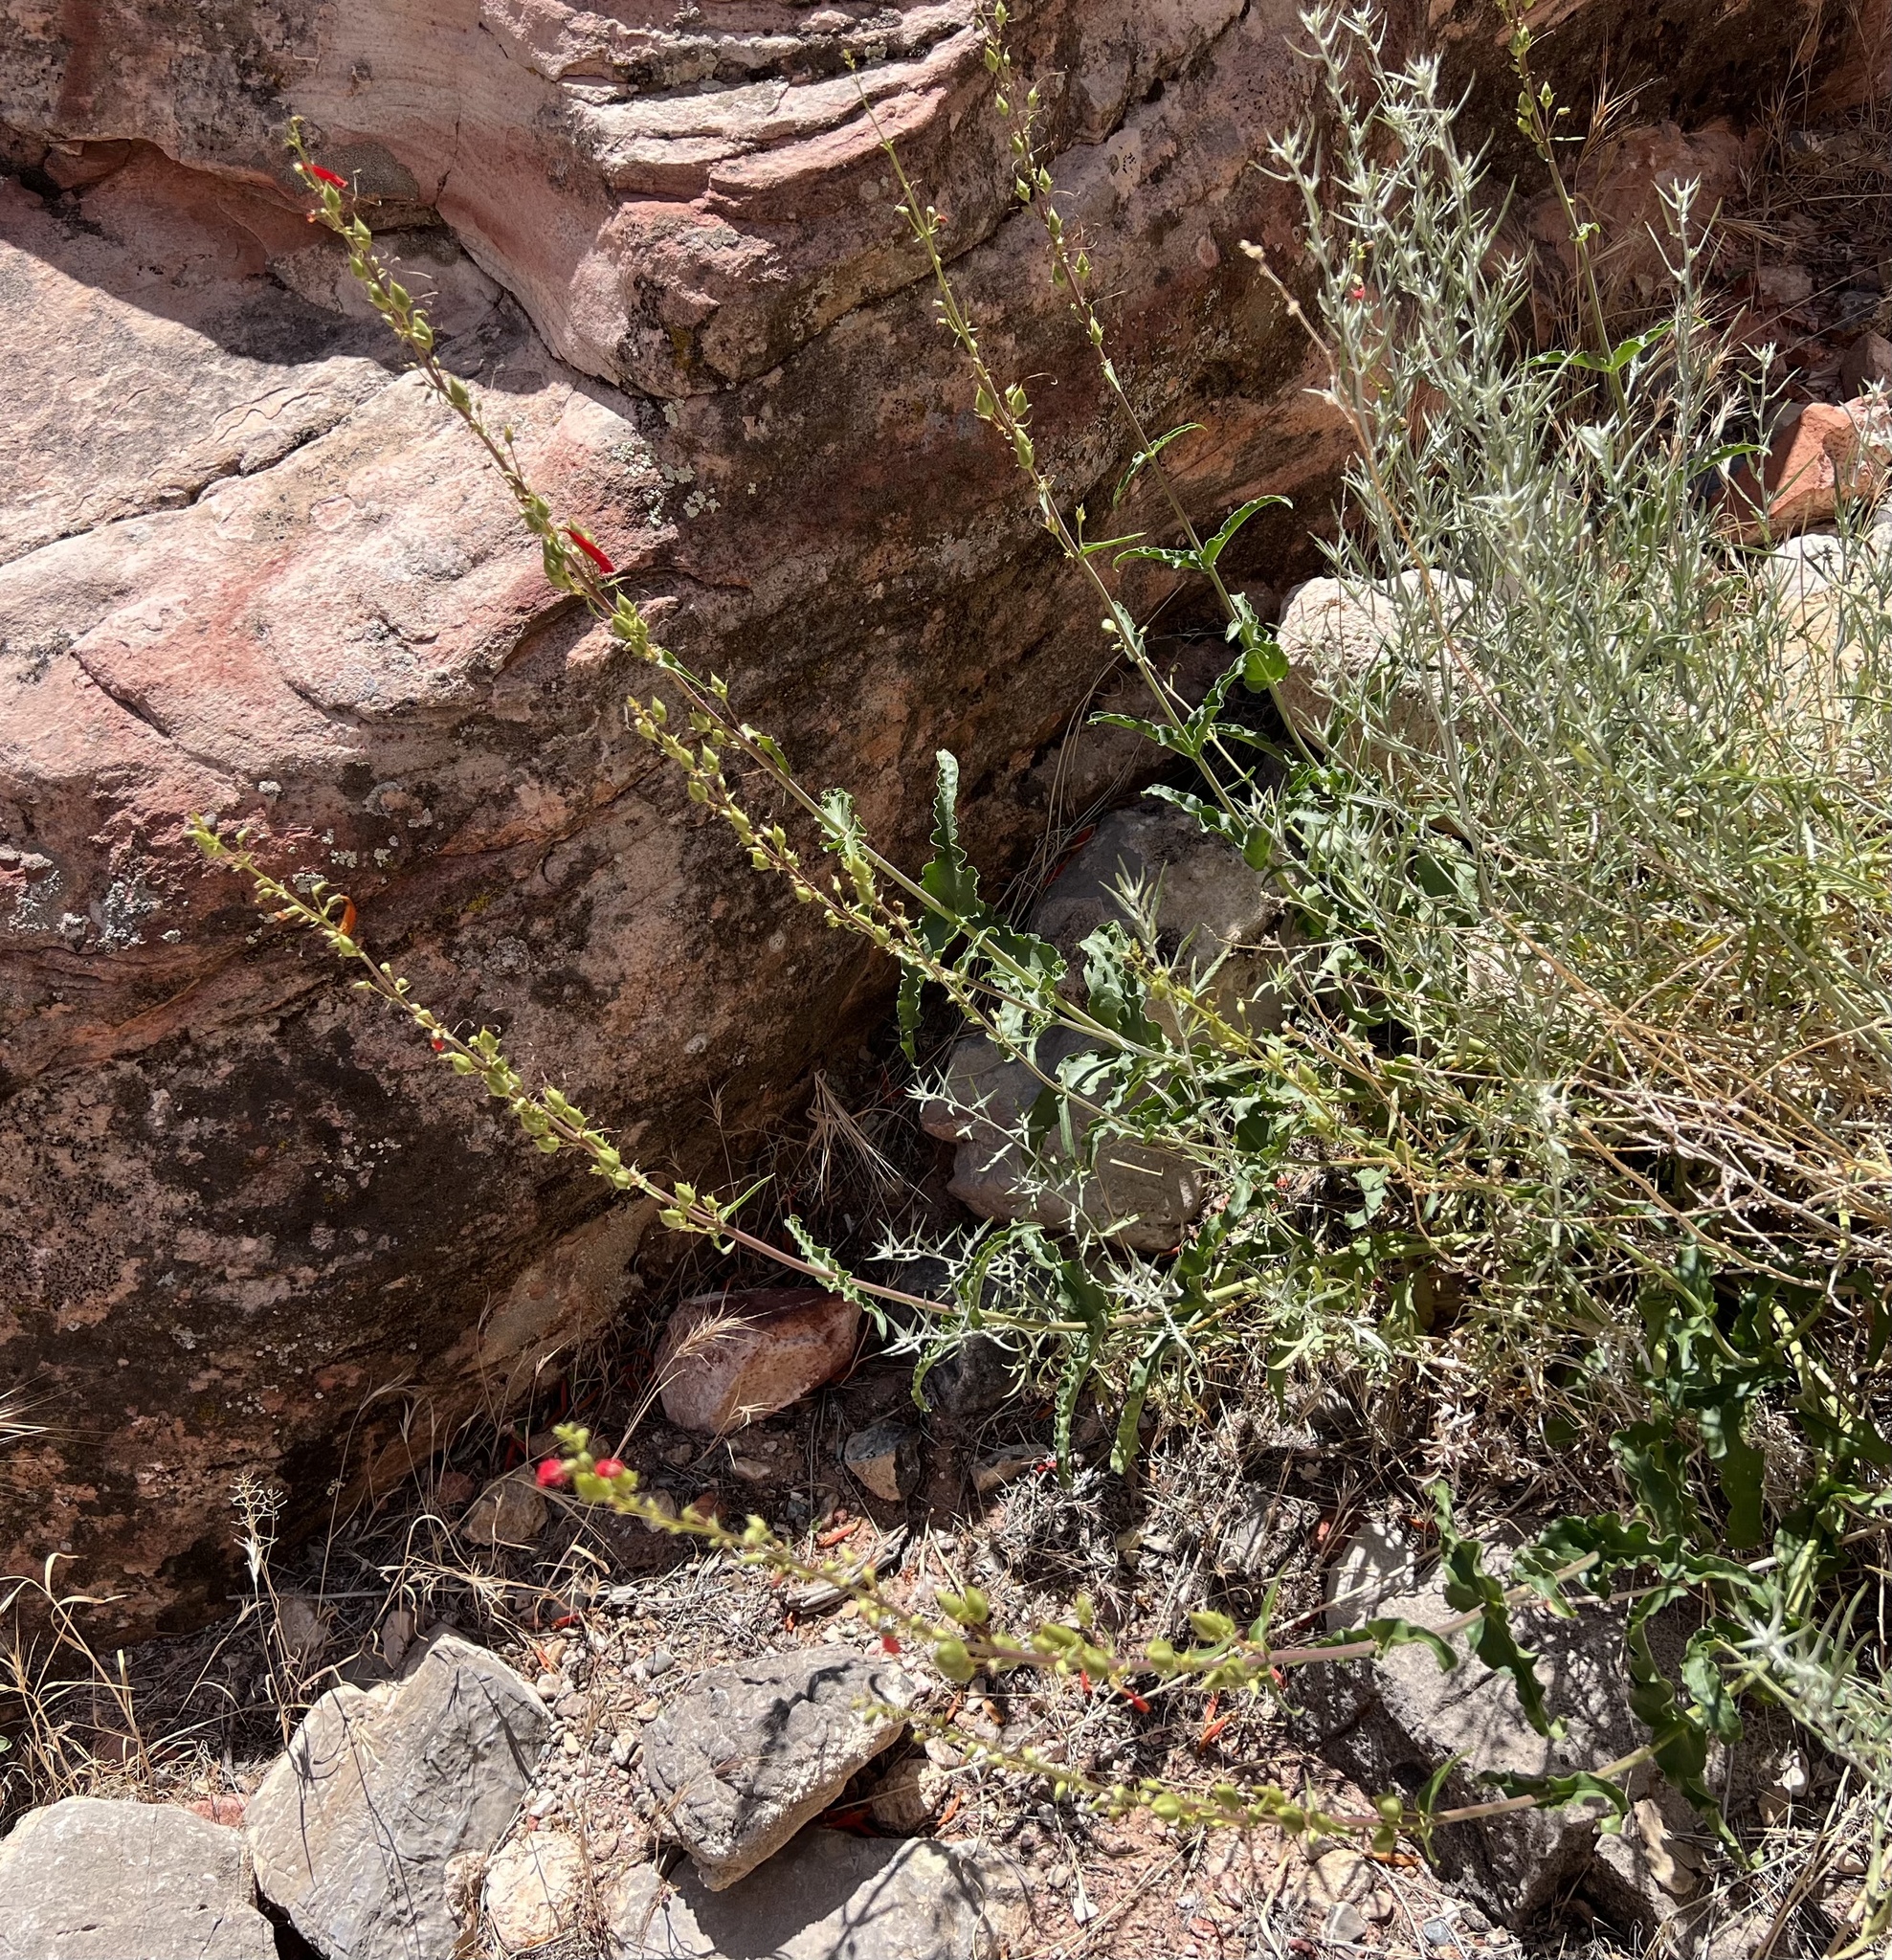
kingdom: Plantae
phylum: Tracheophyta
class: Magnoliopsida
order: Lamiales
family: Plantaginaceae
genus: Penstemon
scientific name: Penstemon eatonii
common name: Eaton's penstemon
